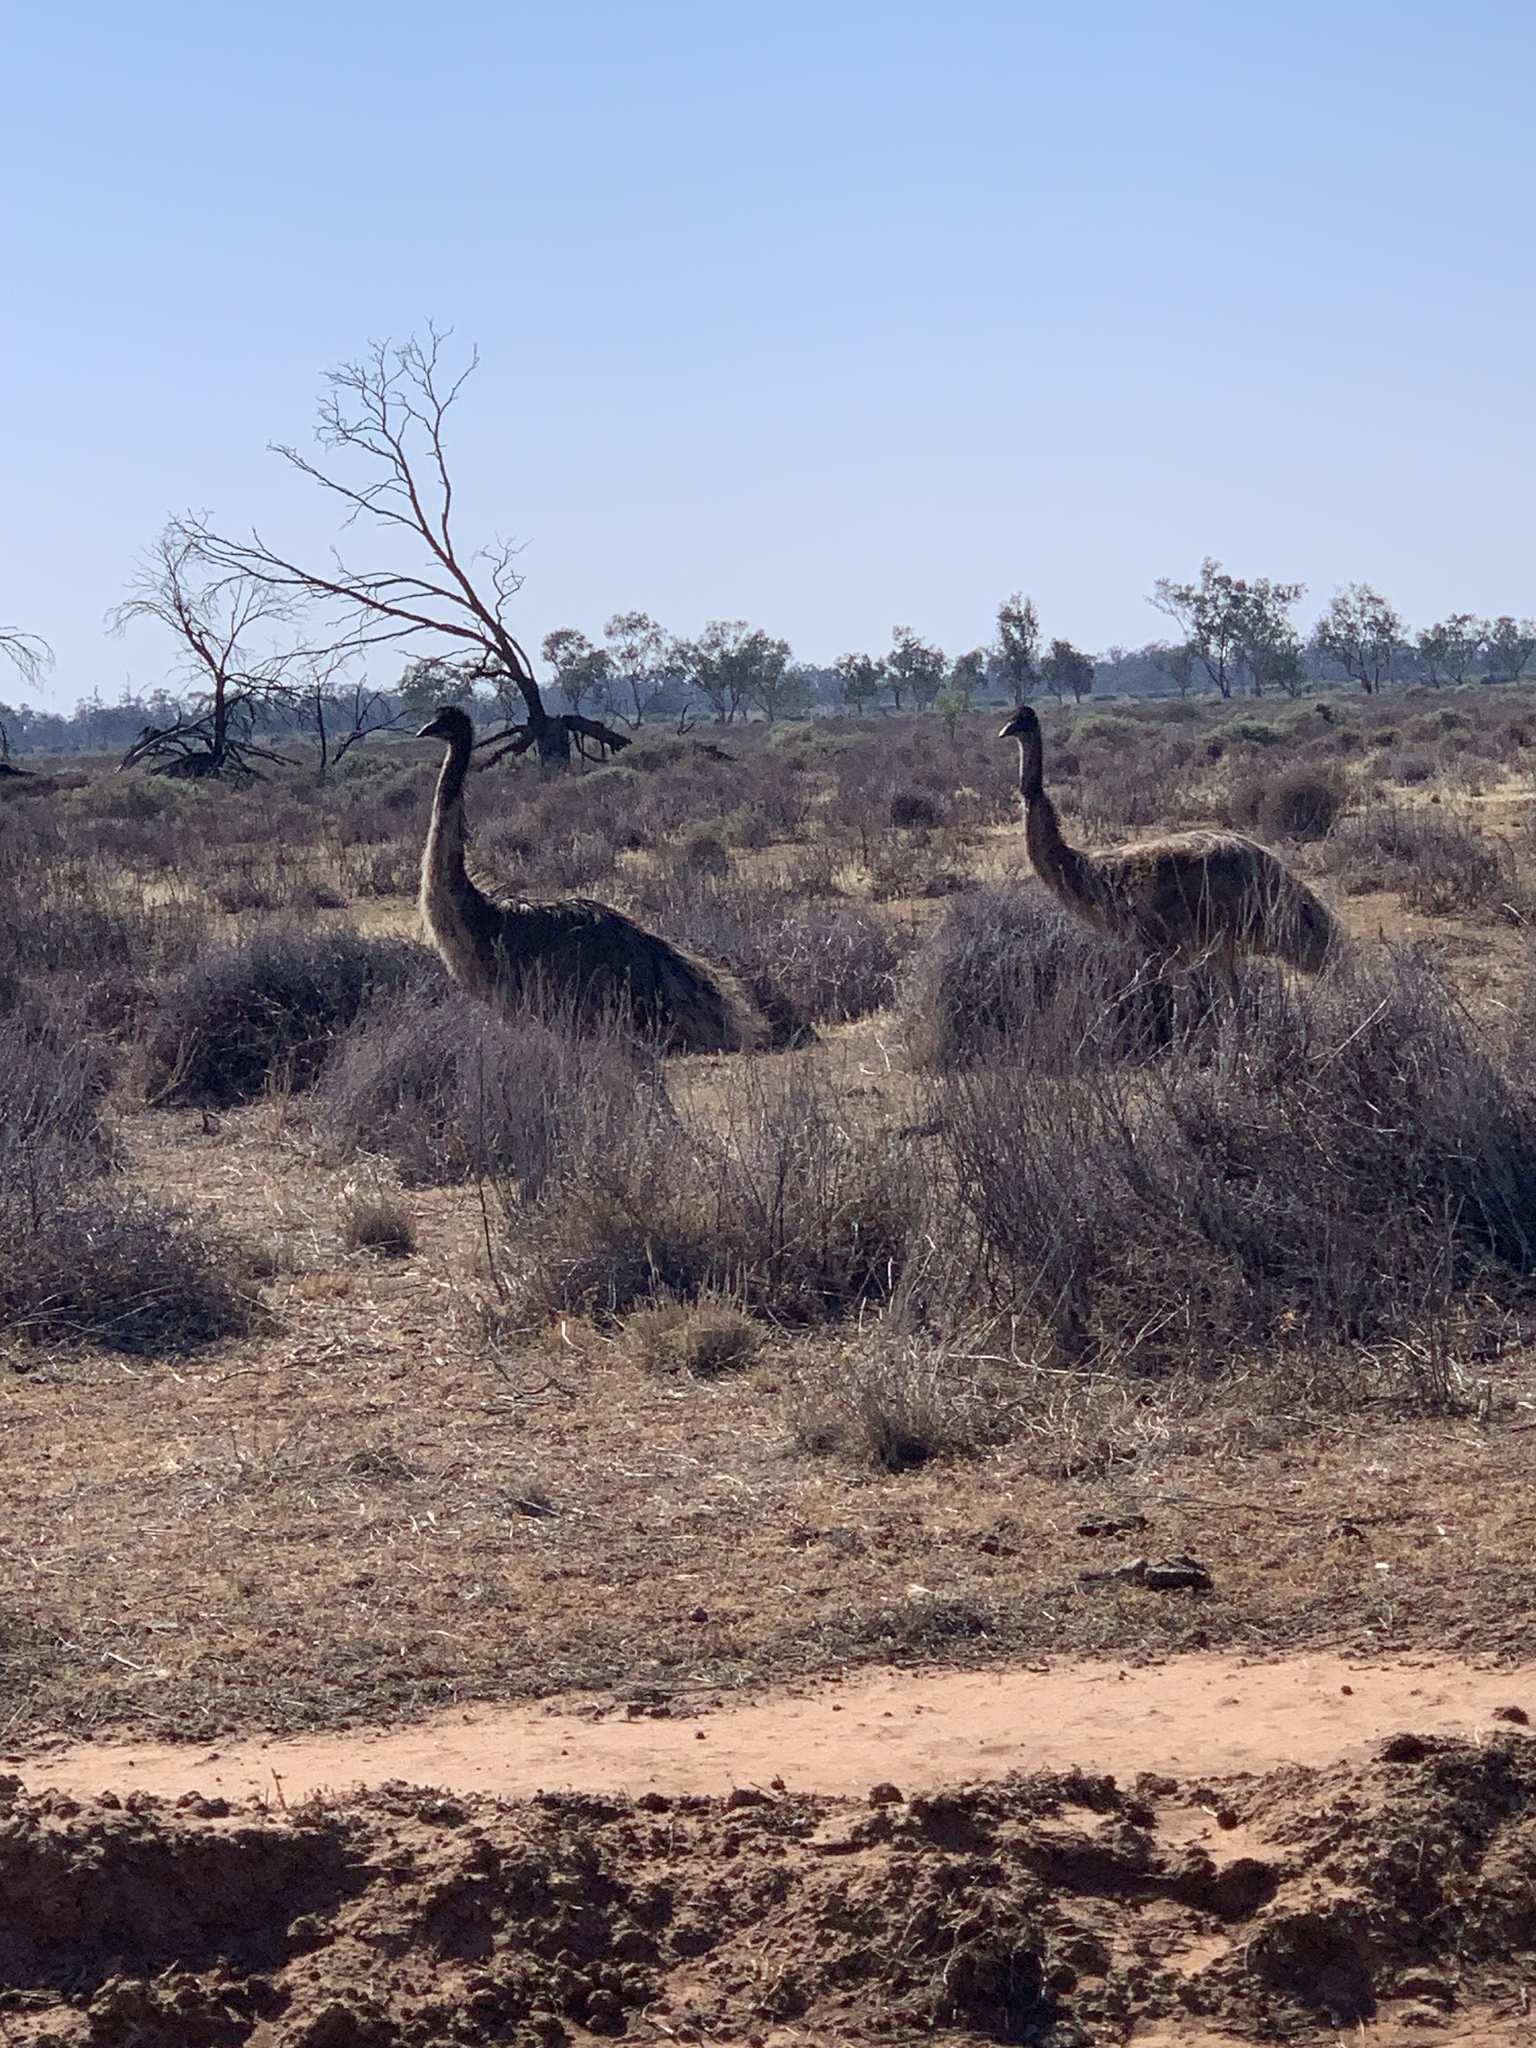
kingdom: Animalia
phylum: Chordata
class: Aves
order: Casuariiformes
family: Dromaiidae
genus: Dromaius
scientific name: Dromaius novaehollandiae
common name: Emu
